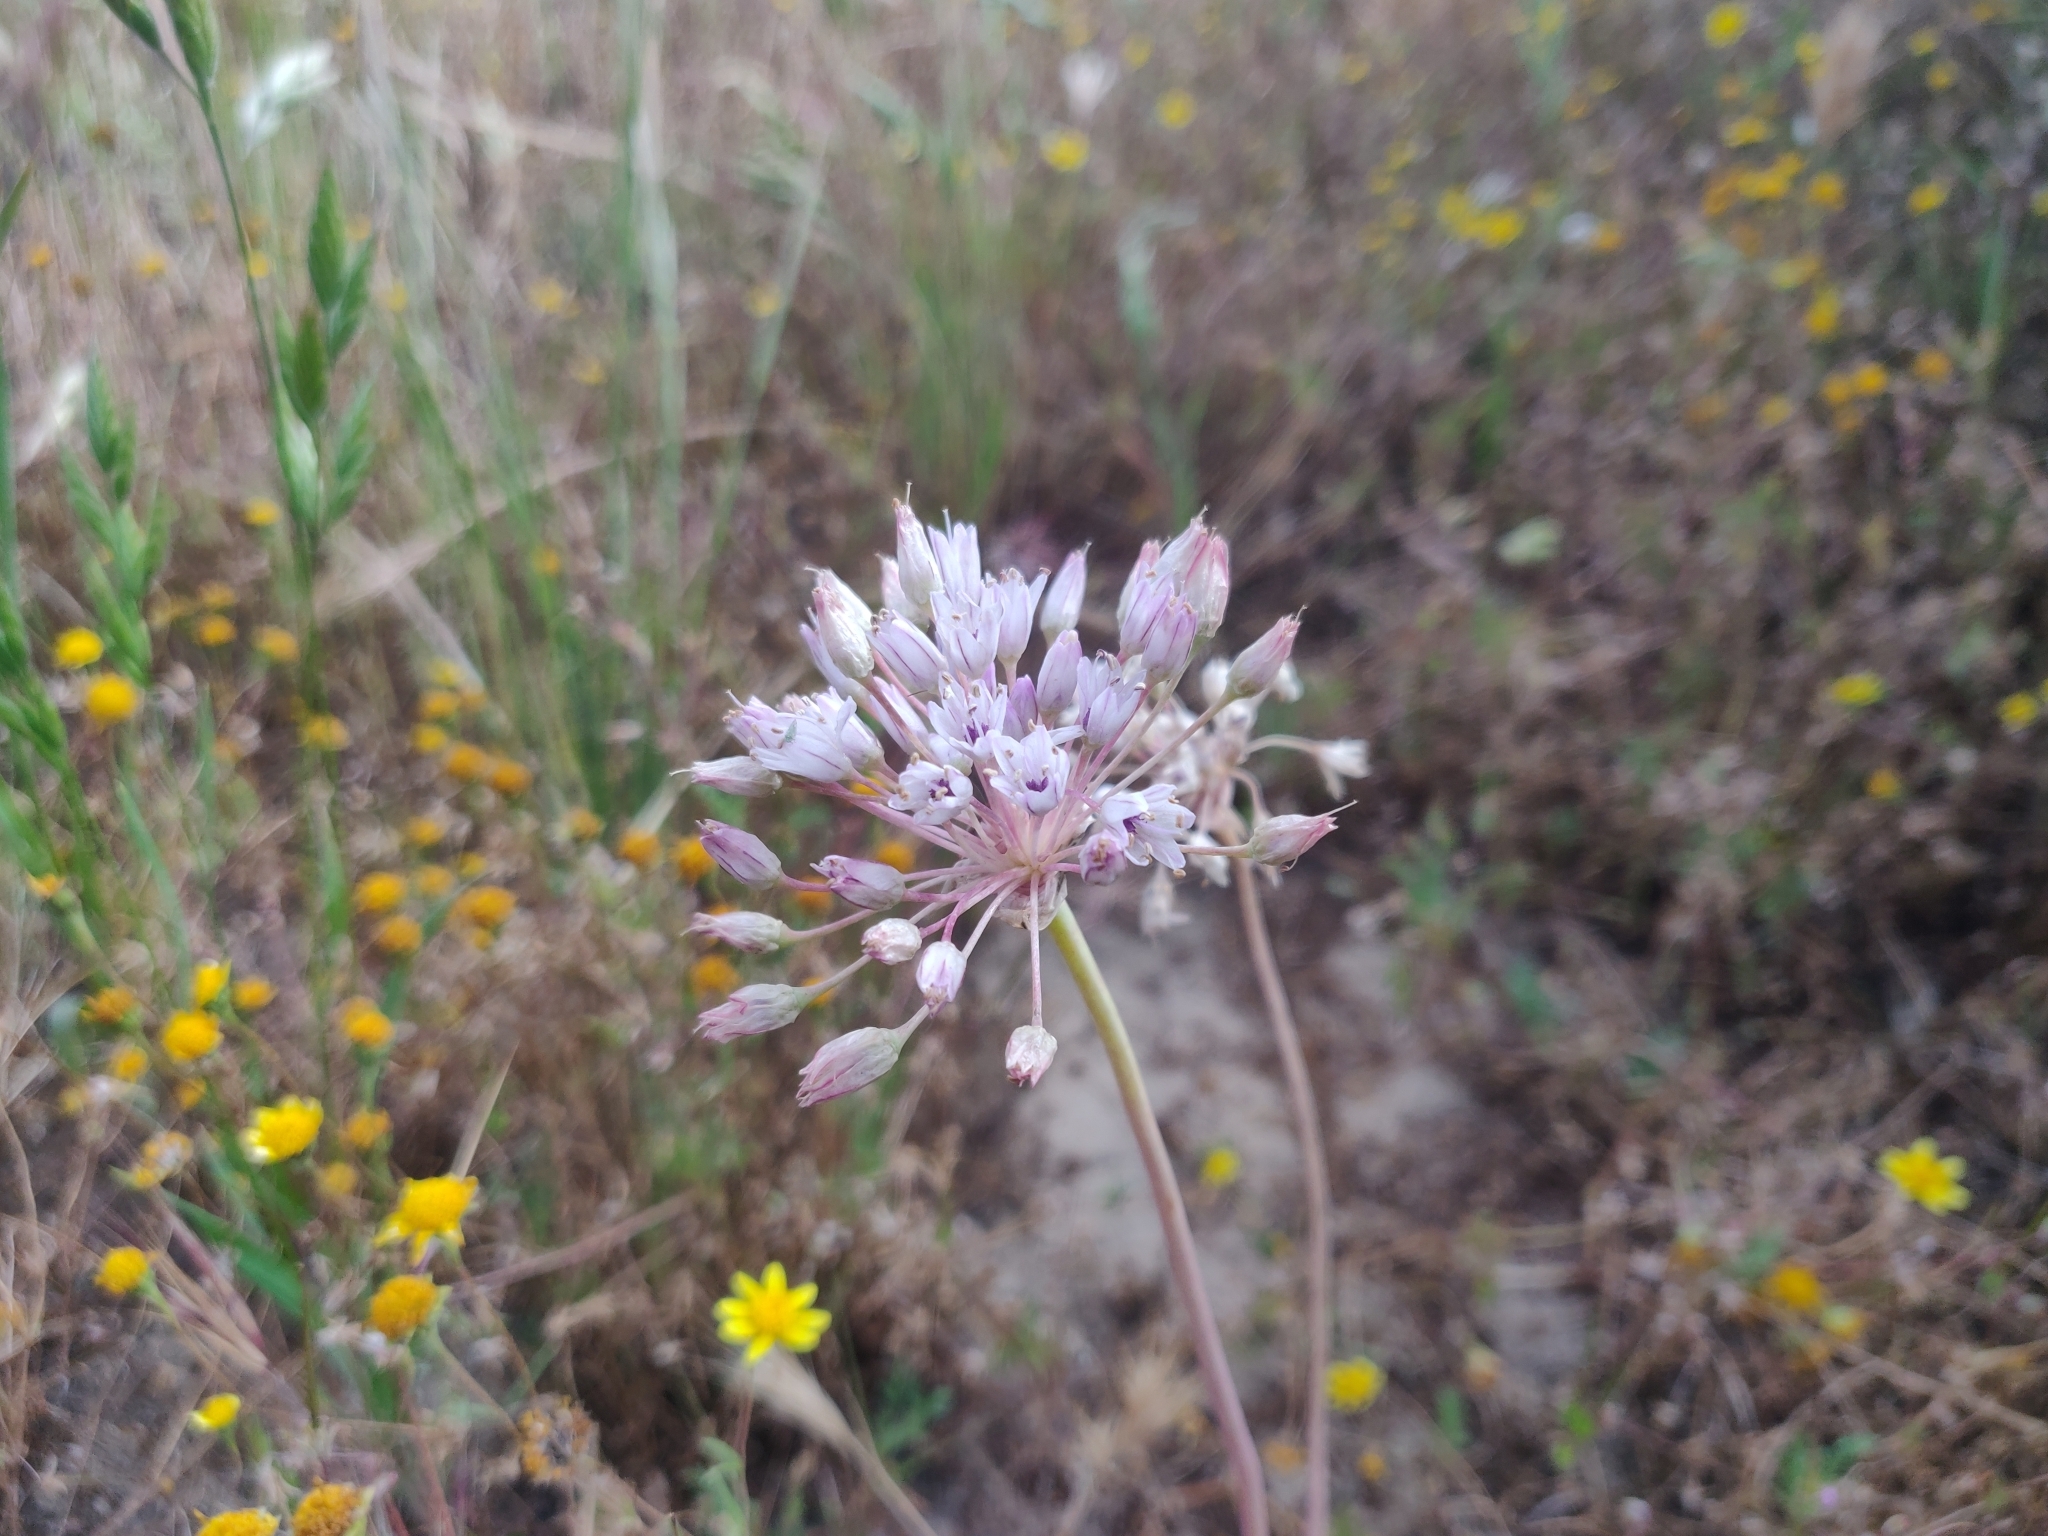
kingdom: Plantae
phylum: Tracheophyta
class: Liliopsida
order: Asparagales
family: Amaryllidaceae
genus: Allium
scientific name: Allium howellii
